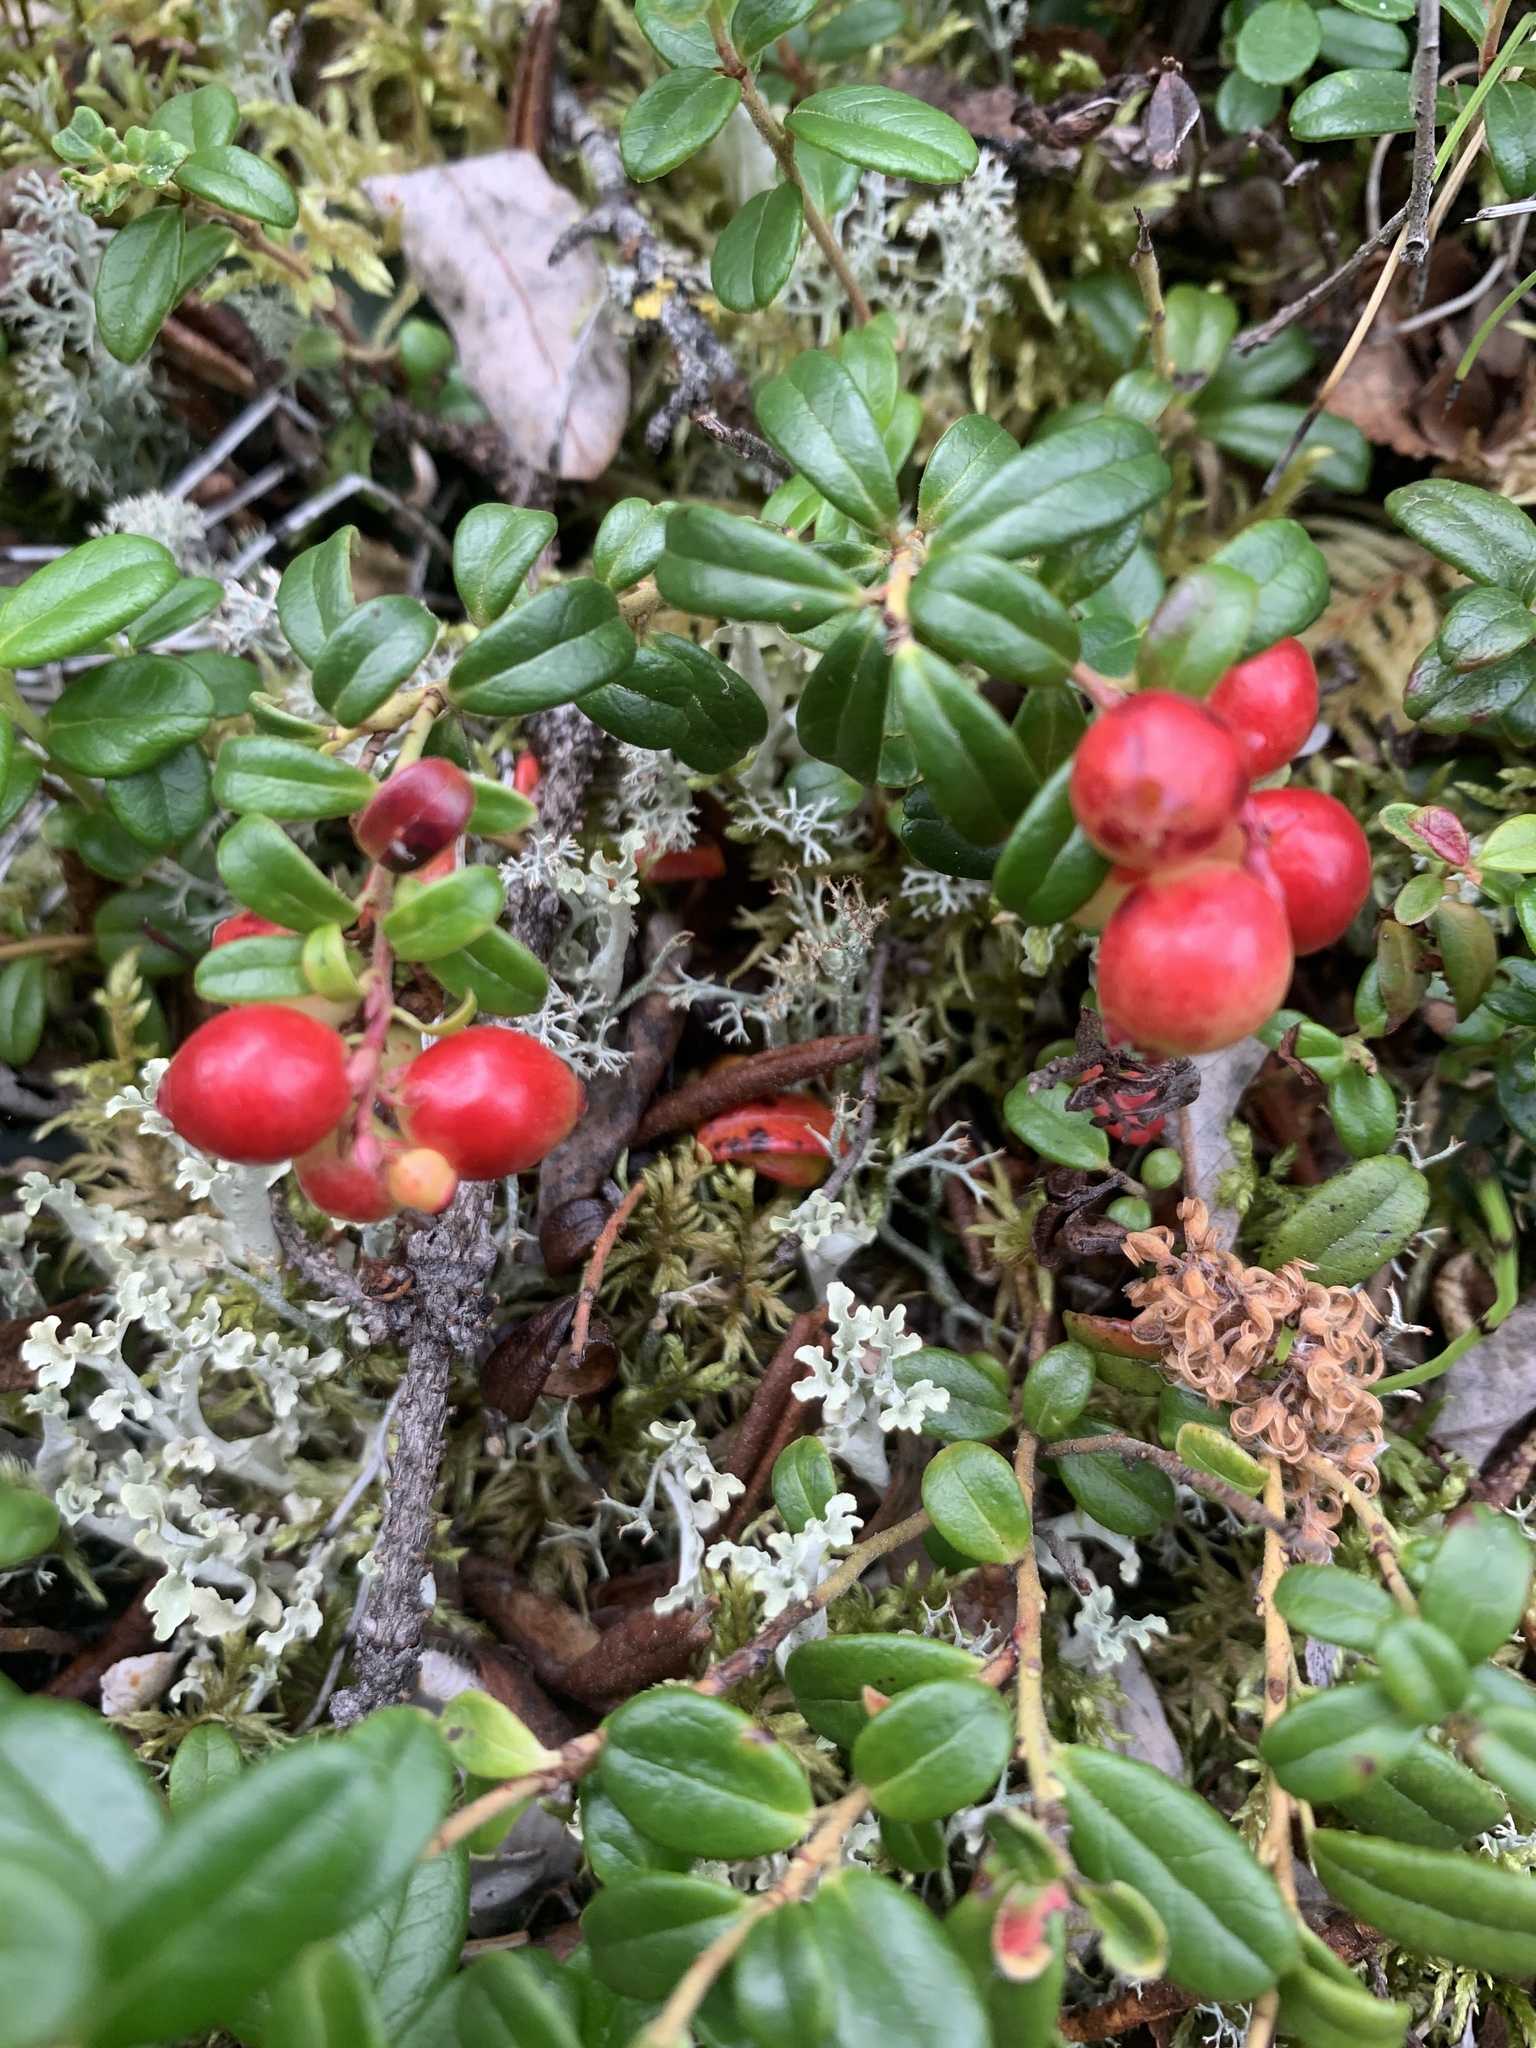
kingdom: Plantae
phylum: Tracheophyta
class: Magnoliopsida
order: Ericales
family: Ericaceae
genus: Vaccinium
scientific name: Vaccinium vitis-idaea
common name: Cowberry
